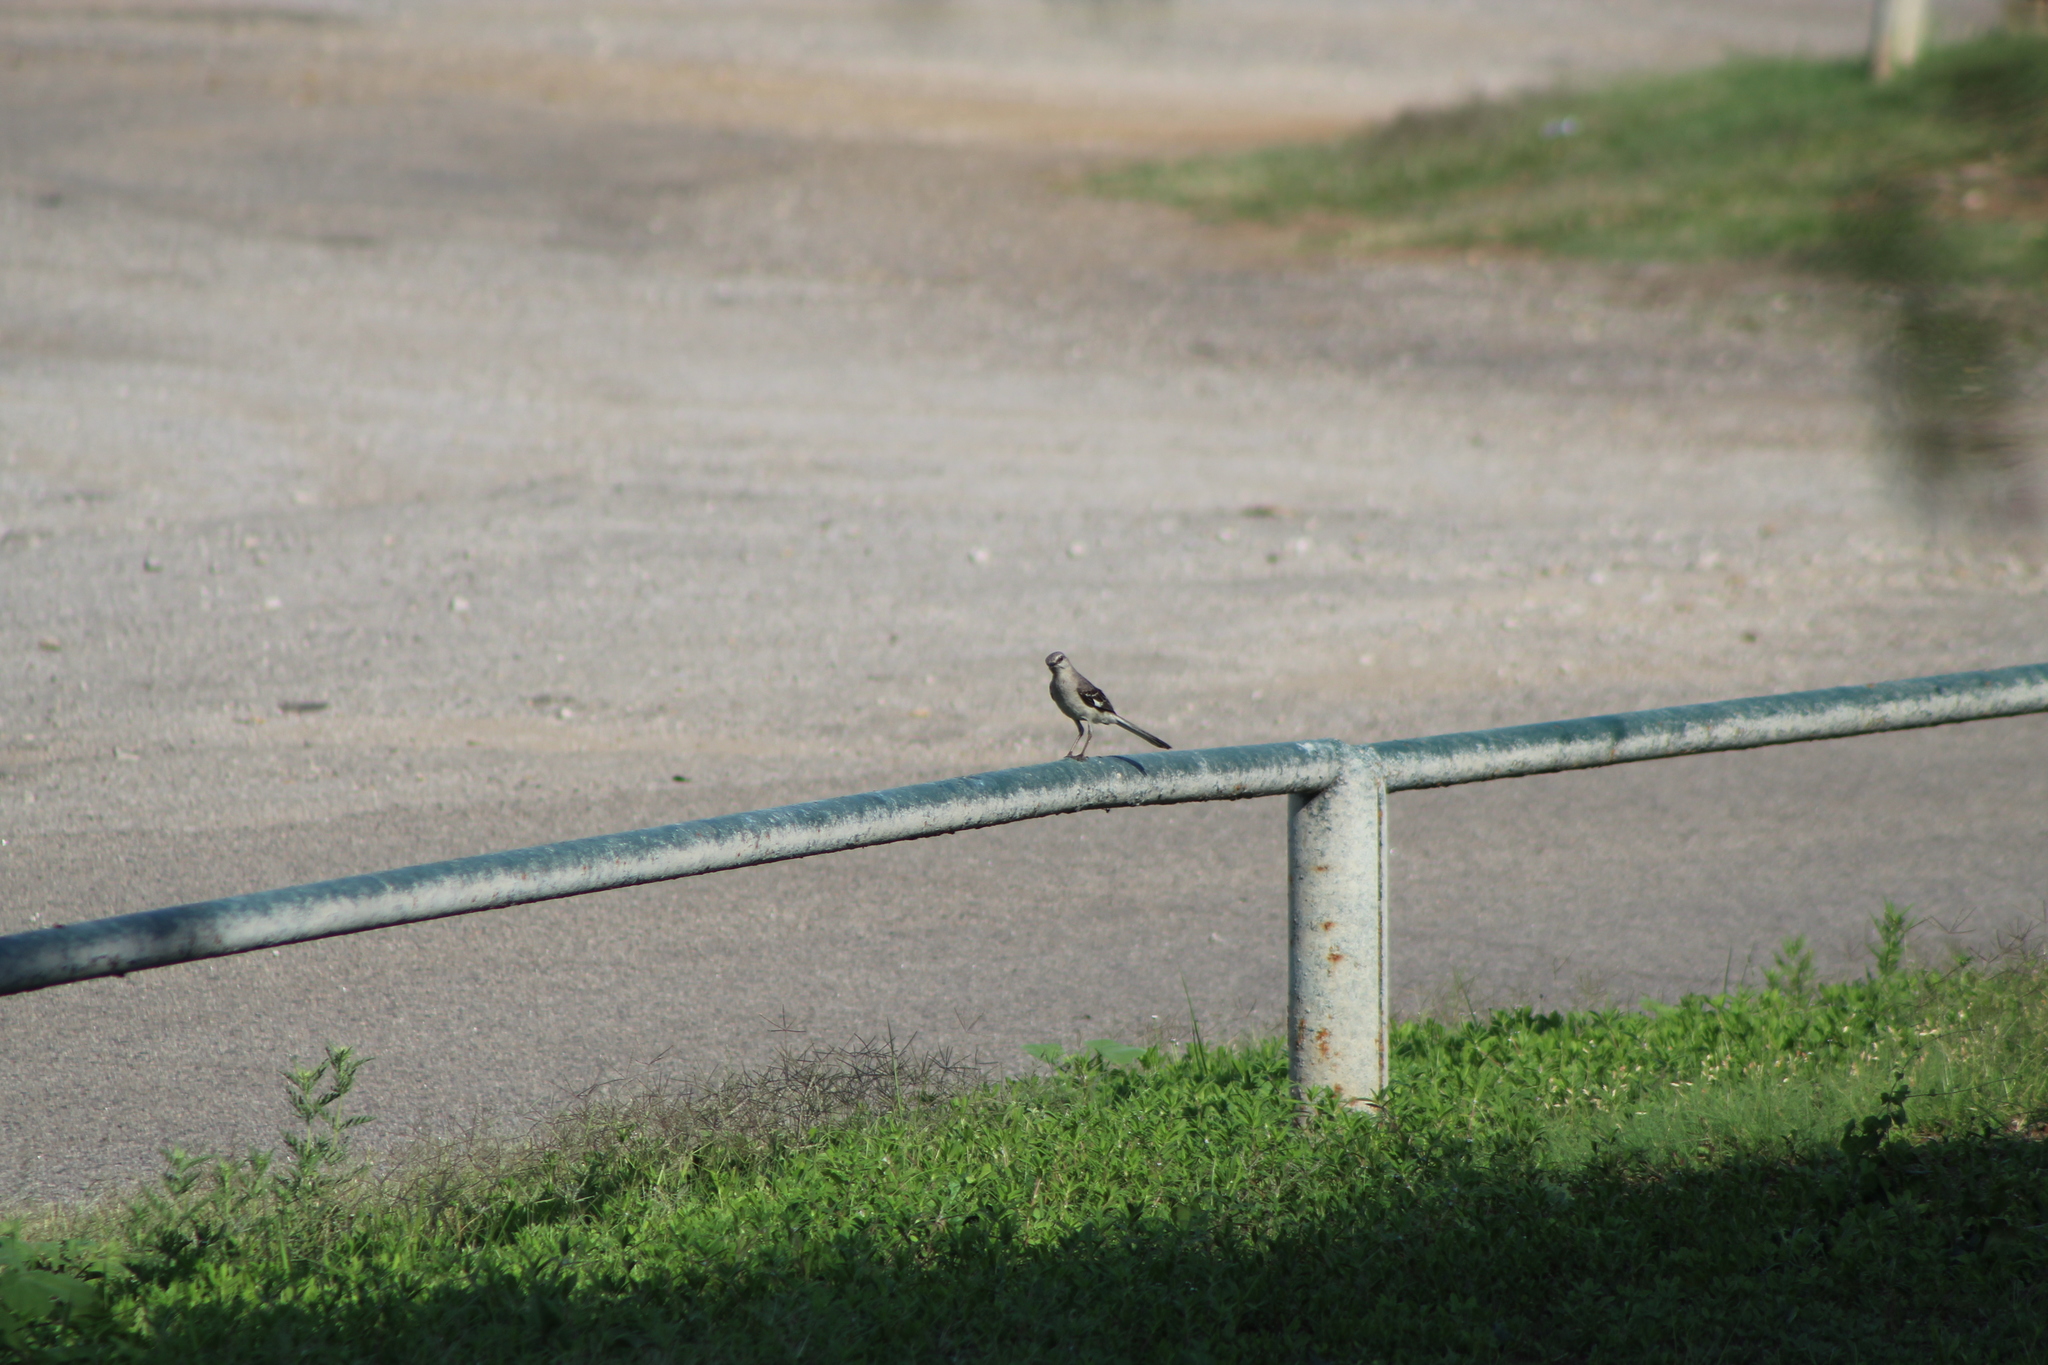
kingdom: Animalia
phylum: Chordata
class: Aves
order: Passeriformes
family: Mimidae
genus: Mimus
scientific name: Mimus polyglottos
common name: Northern mockingbird
